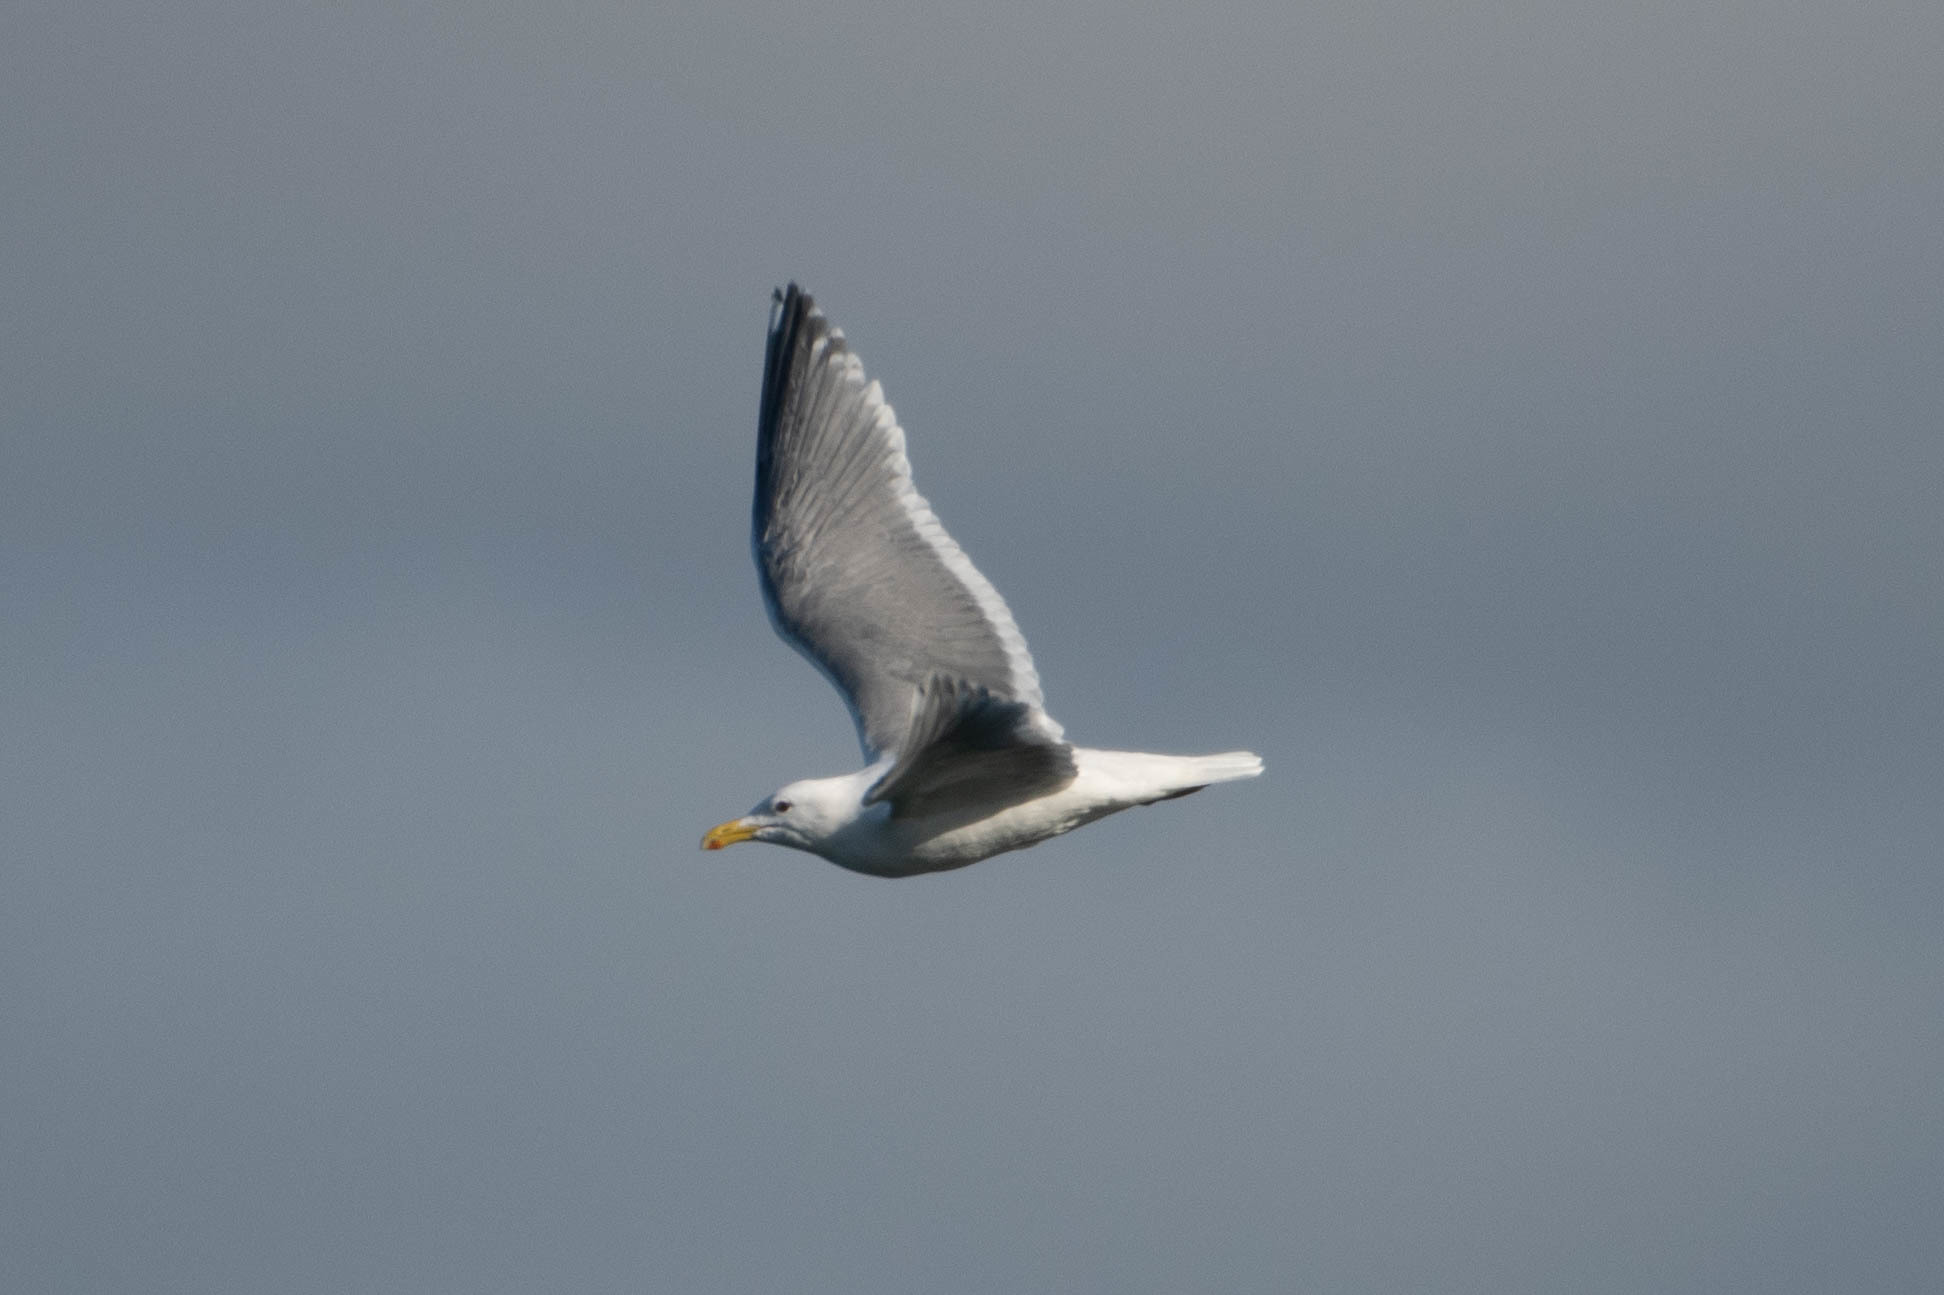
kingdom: Animalia
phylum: Chordata
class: Aves
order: Charadriiformes
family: Laridae
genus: Larus
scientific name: Larus
